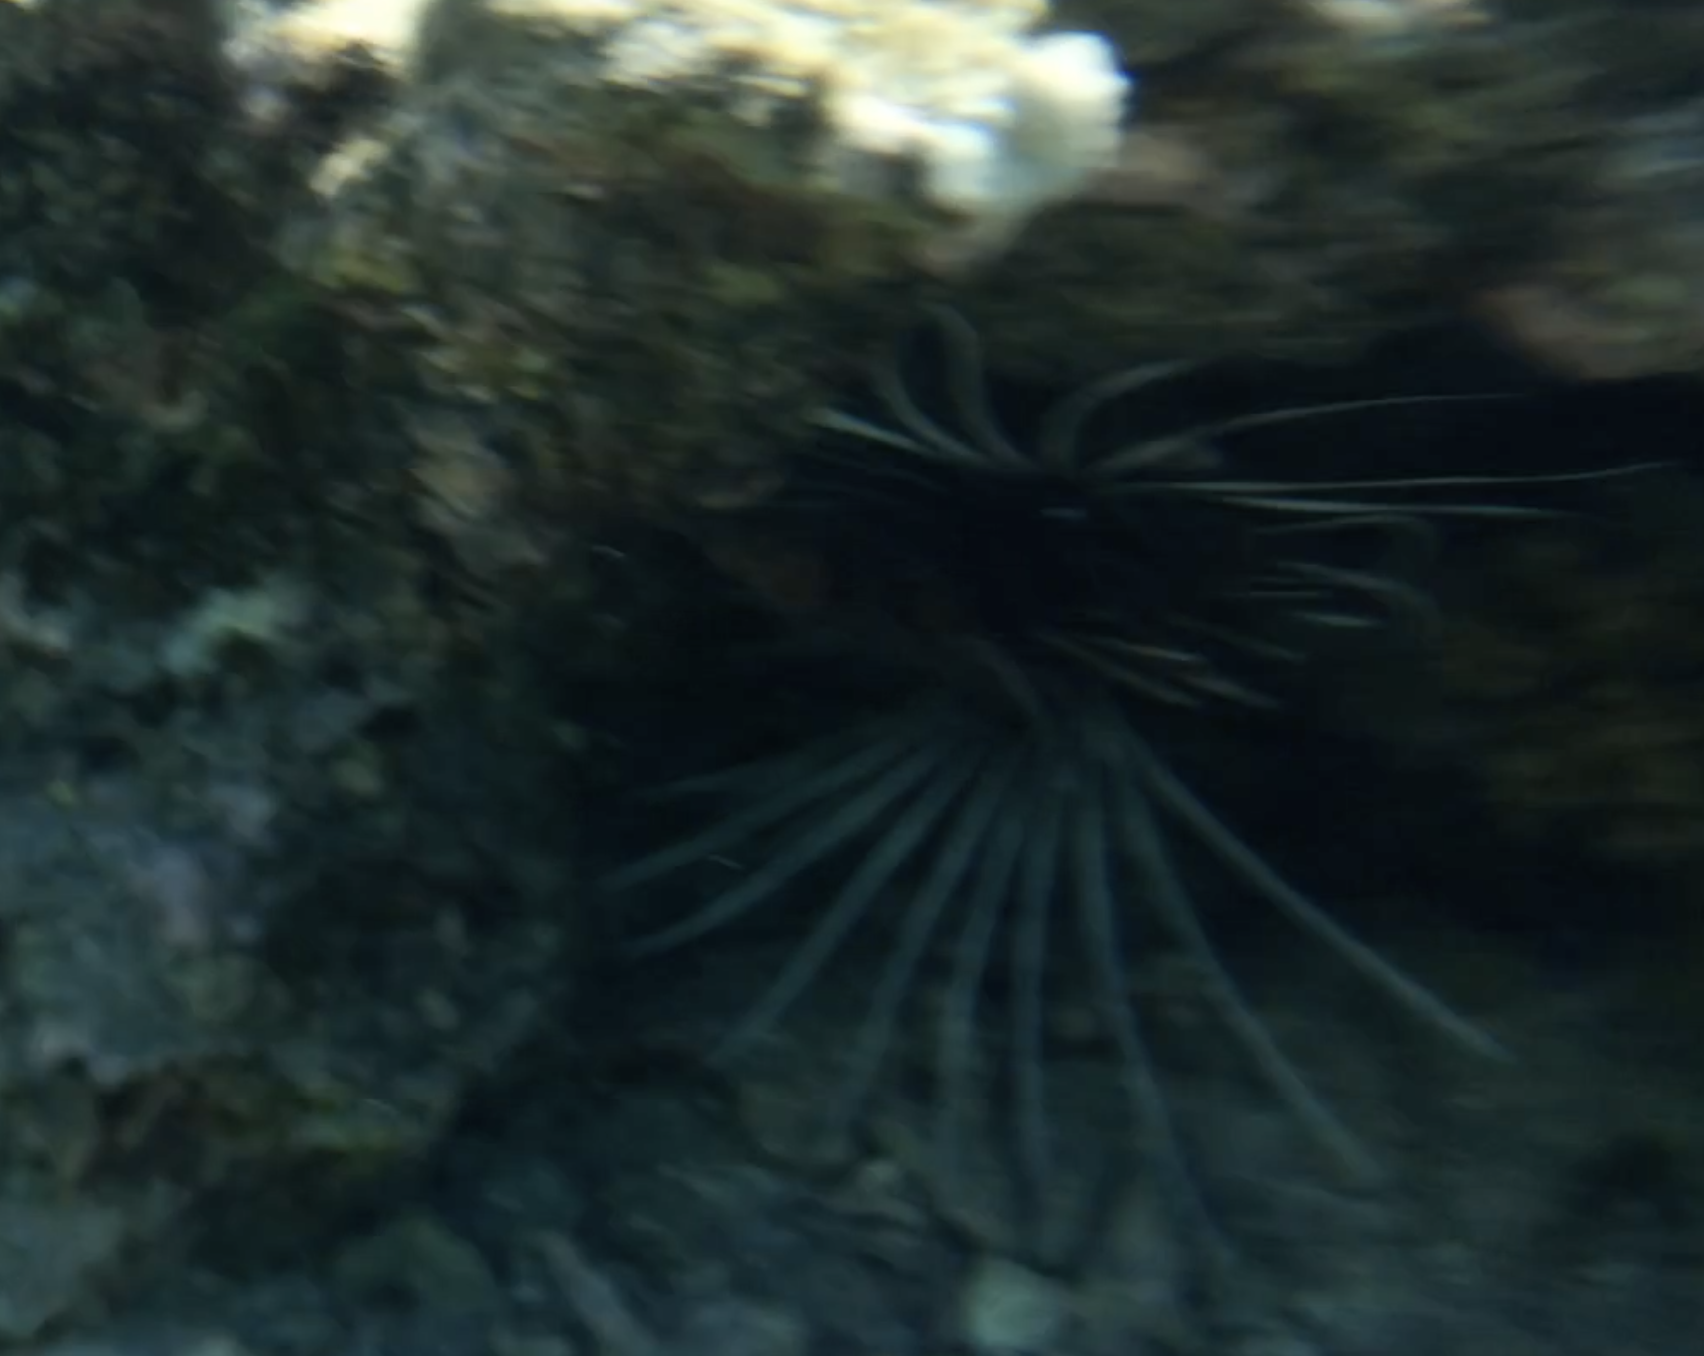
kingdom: Animalia
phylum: Chordata
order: Scorpaeniformes
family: Scorpaenidae
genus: Pterois
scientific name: Pterois cincta
